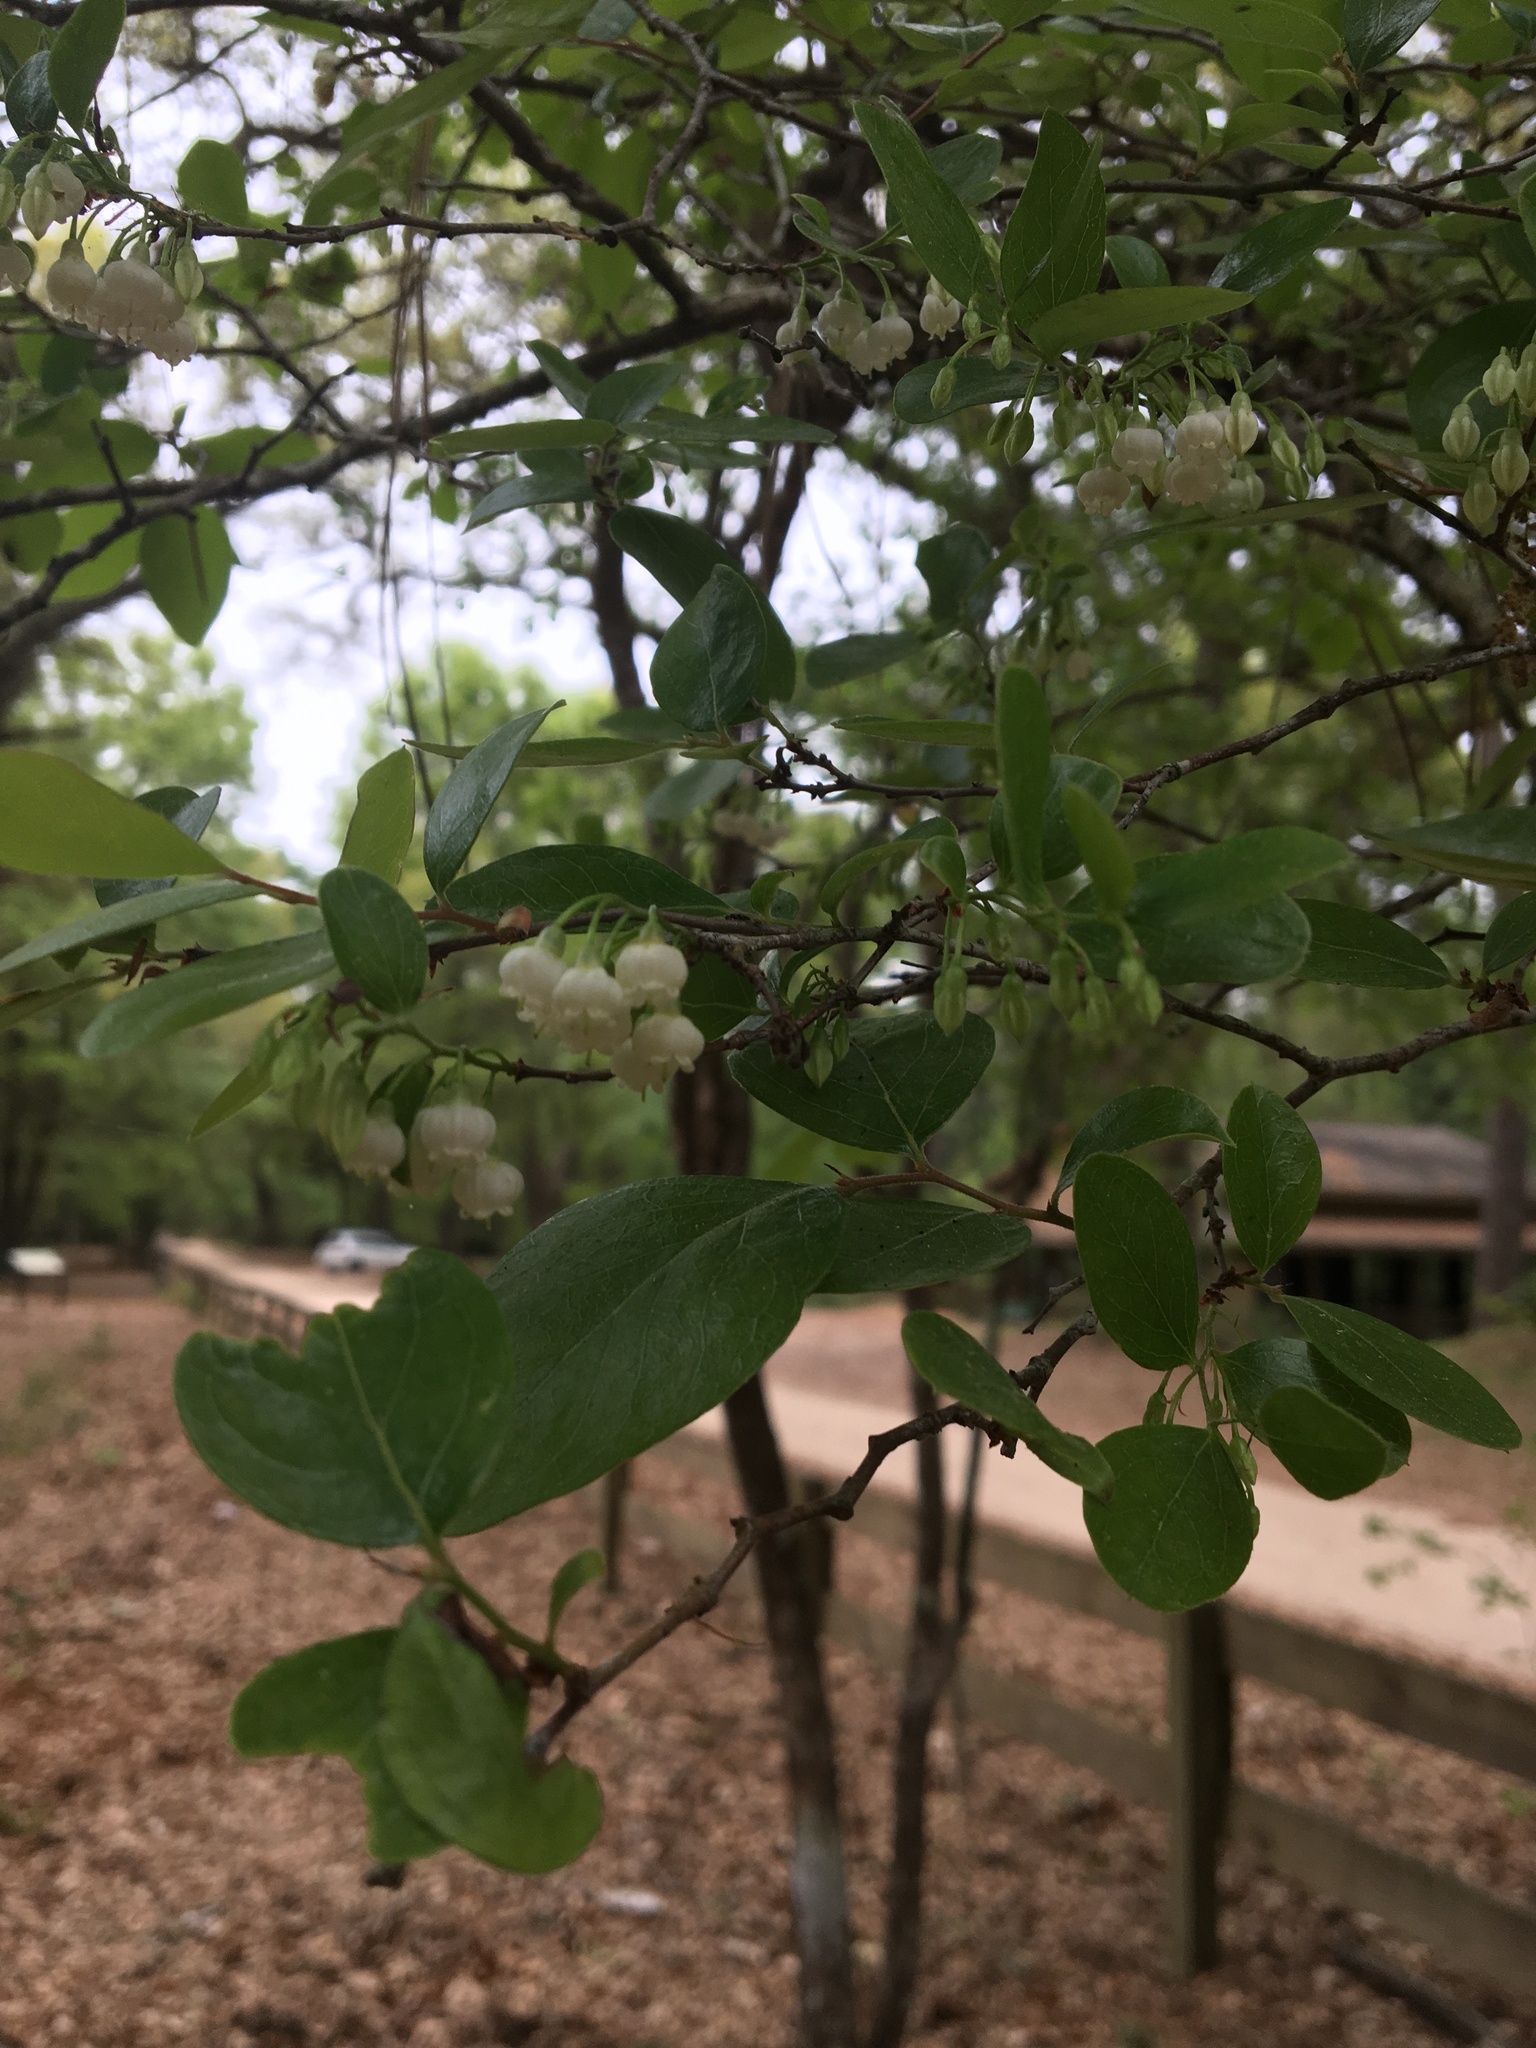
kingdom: Plantae
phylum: Tracheophyta
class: Magnoliopsida
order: Ericales
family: Ericaceae
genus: Vaccinium
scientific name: Vaccinium arboreum
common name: Farkleberry
